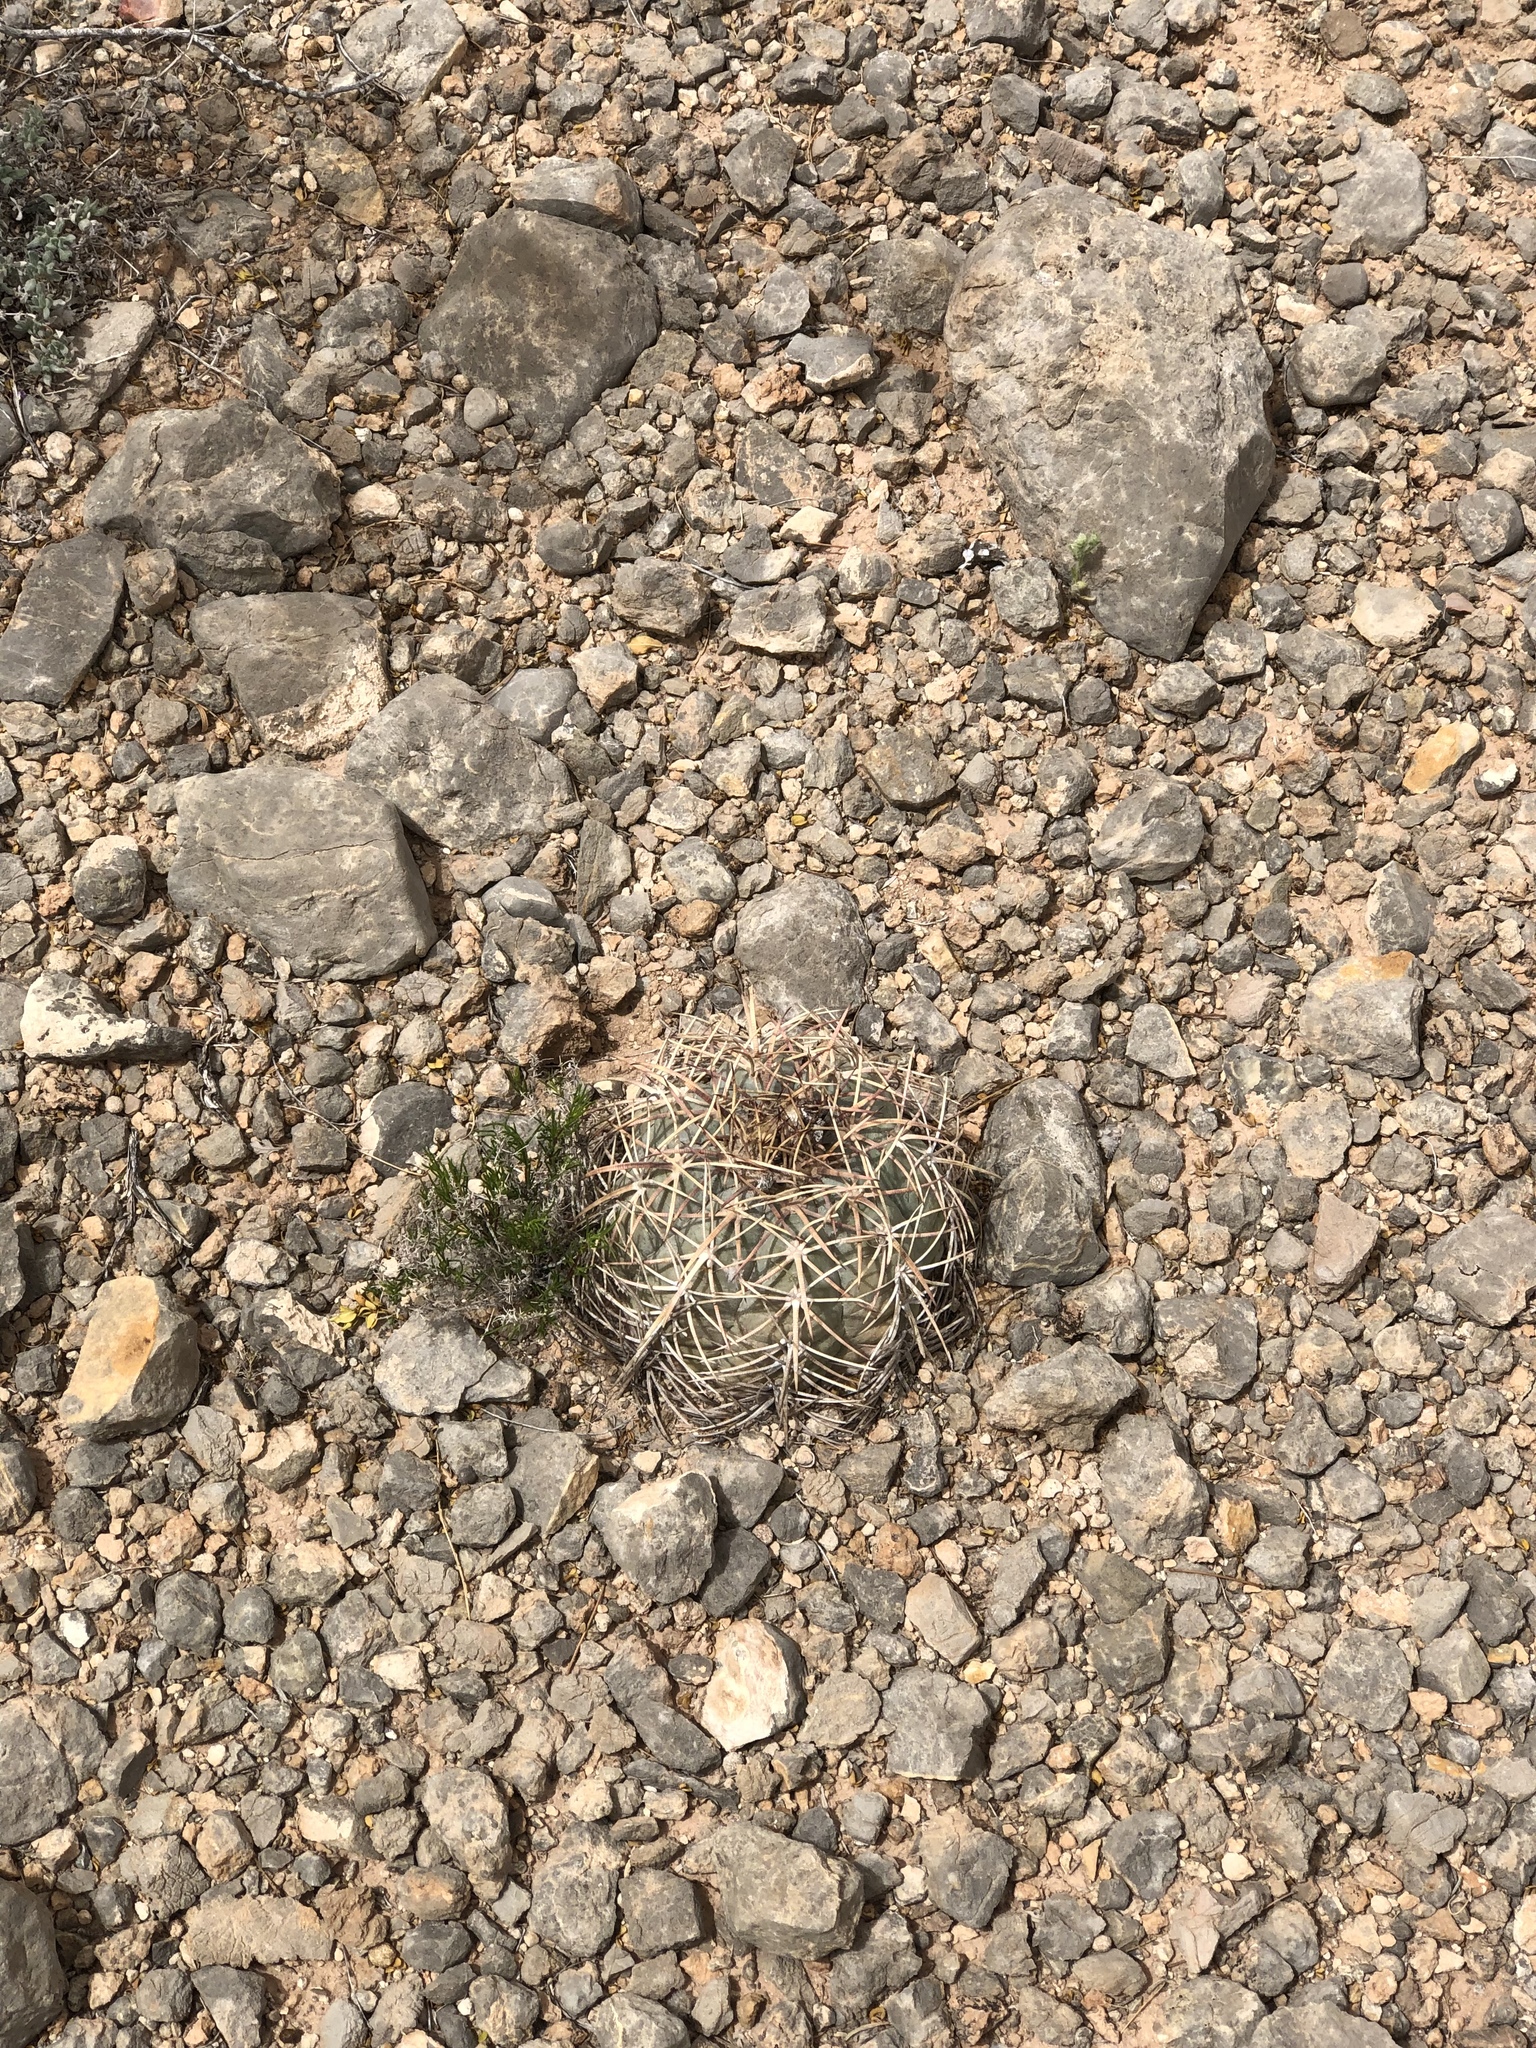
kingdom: Plantae
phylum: Tracheophyta
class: Magnoliopsida
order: Caryophyllales
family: Cactaceae
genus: Echinocactus
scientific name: Echinocactus horizonthalonius
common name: Devilshead
